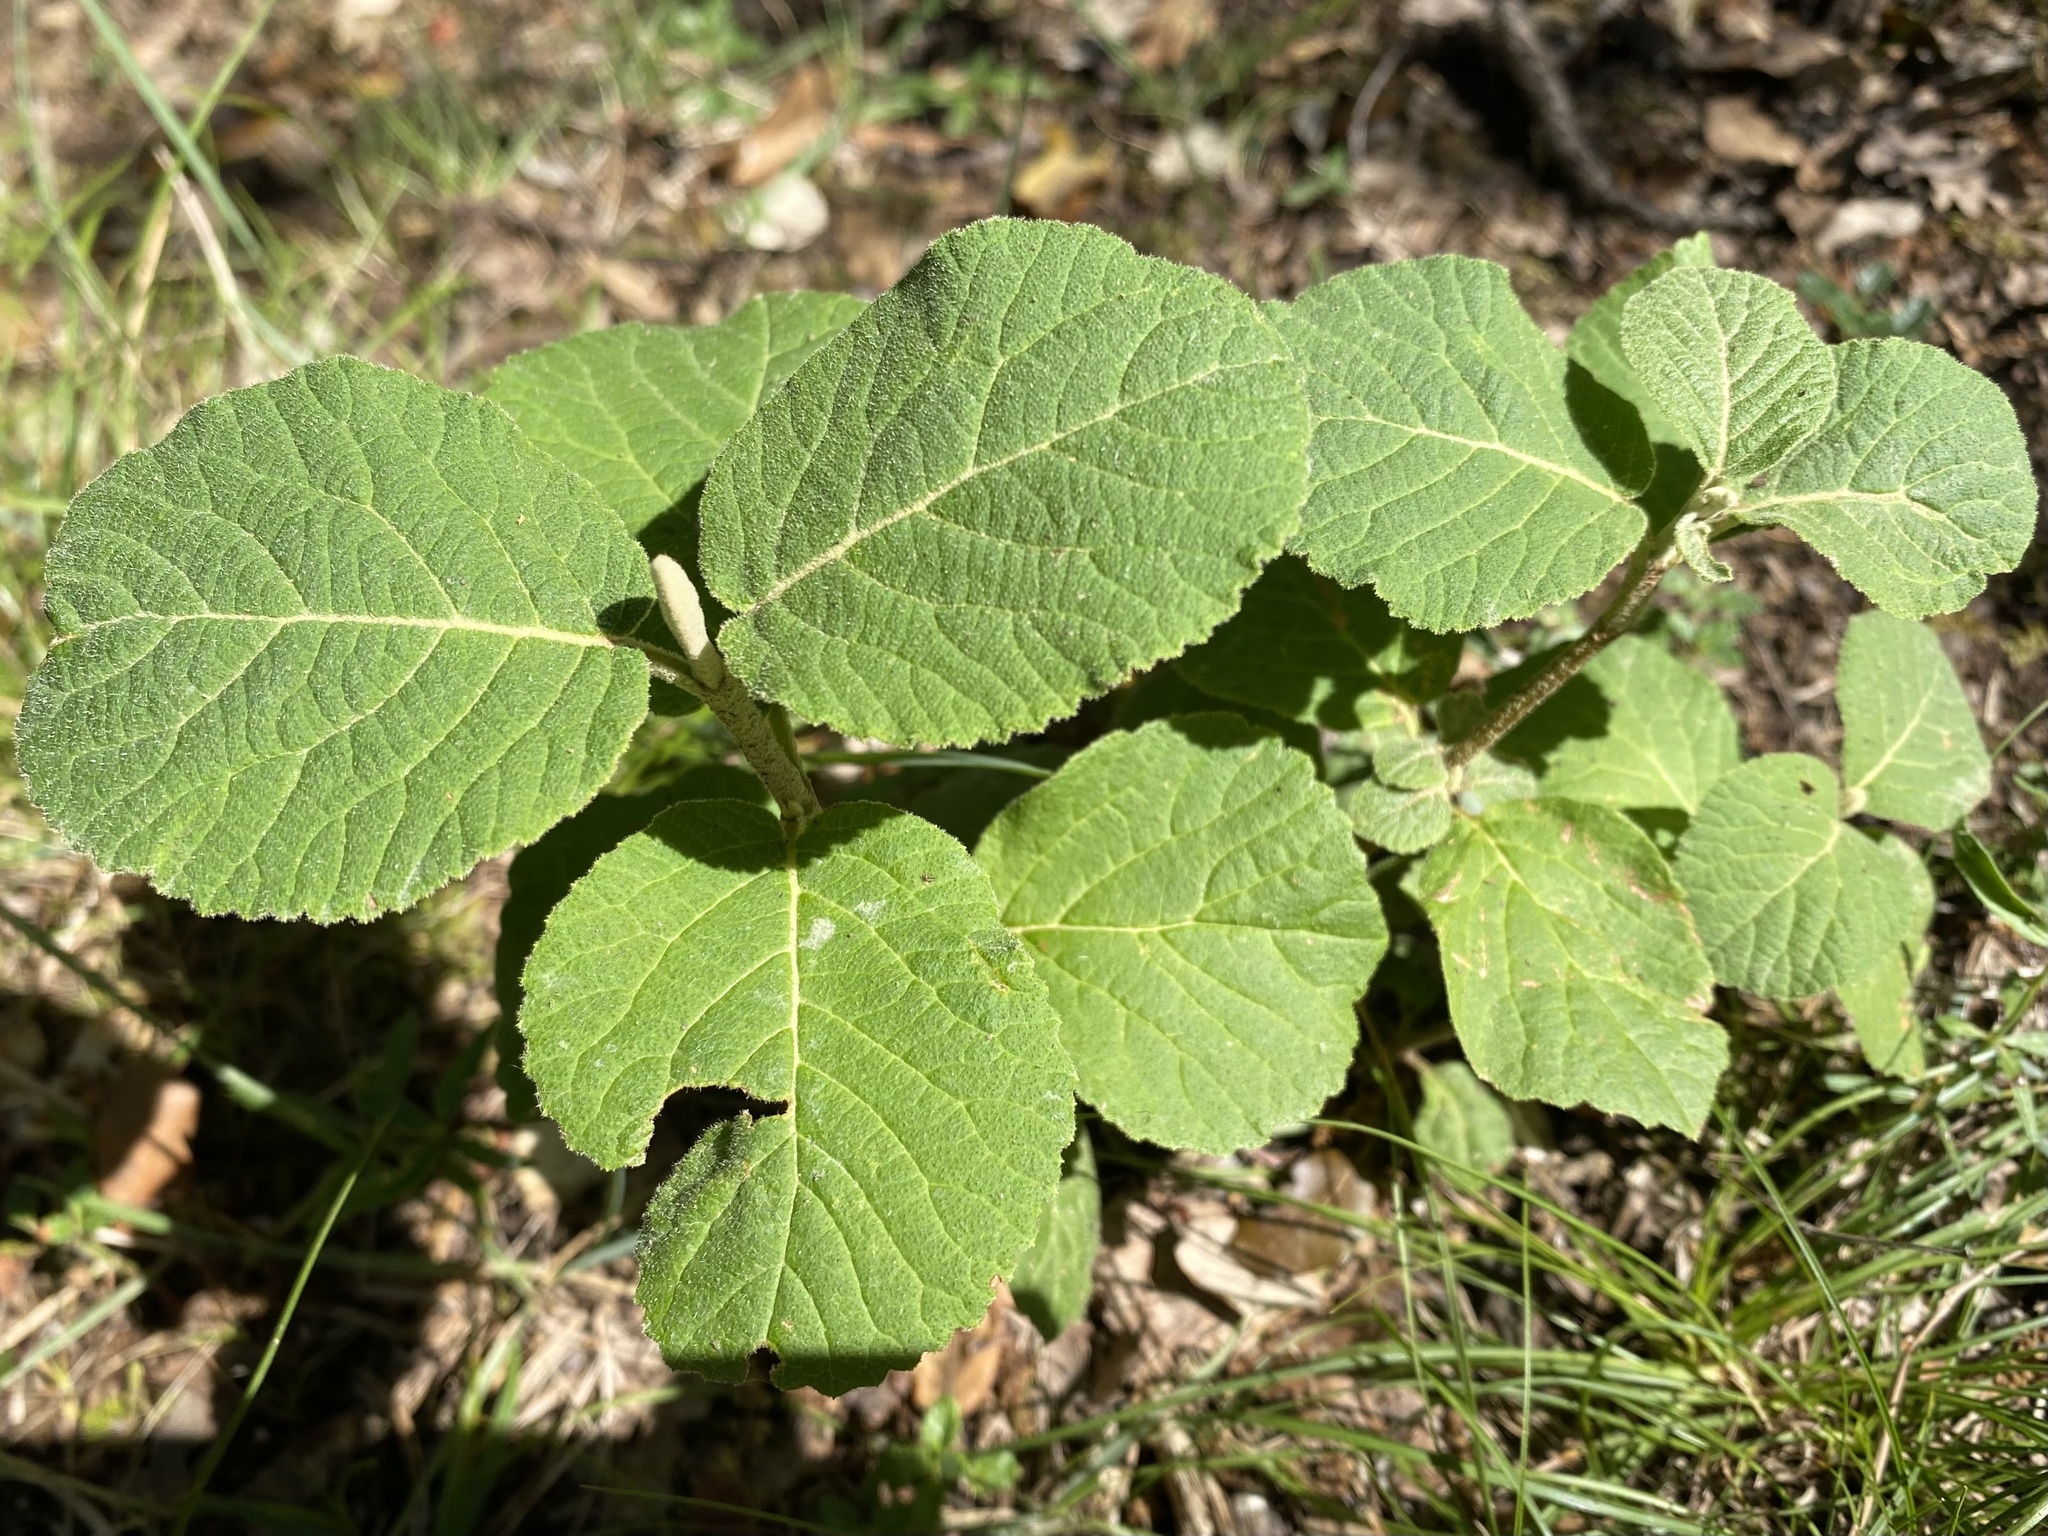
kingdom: Plantae
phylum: Tracheophyta
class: Magnoliopsida
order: Dipsacales
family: Viburnaceae
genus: Viburnum
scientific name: Viburnum lantana
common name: Wayfaring tree
